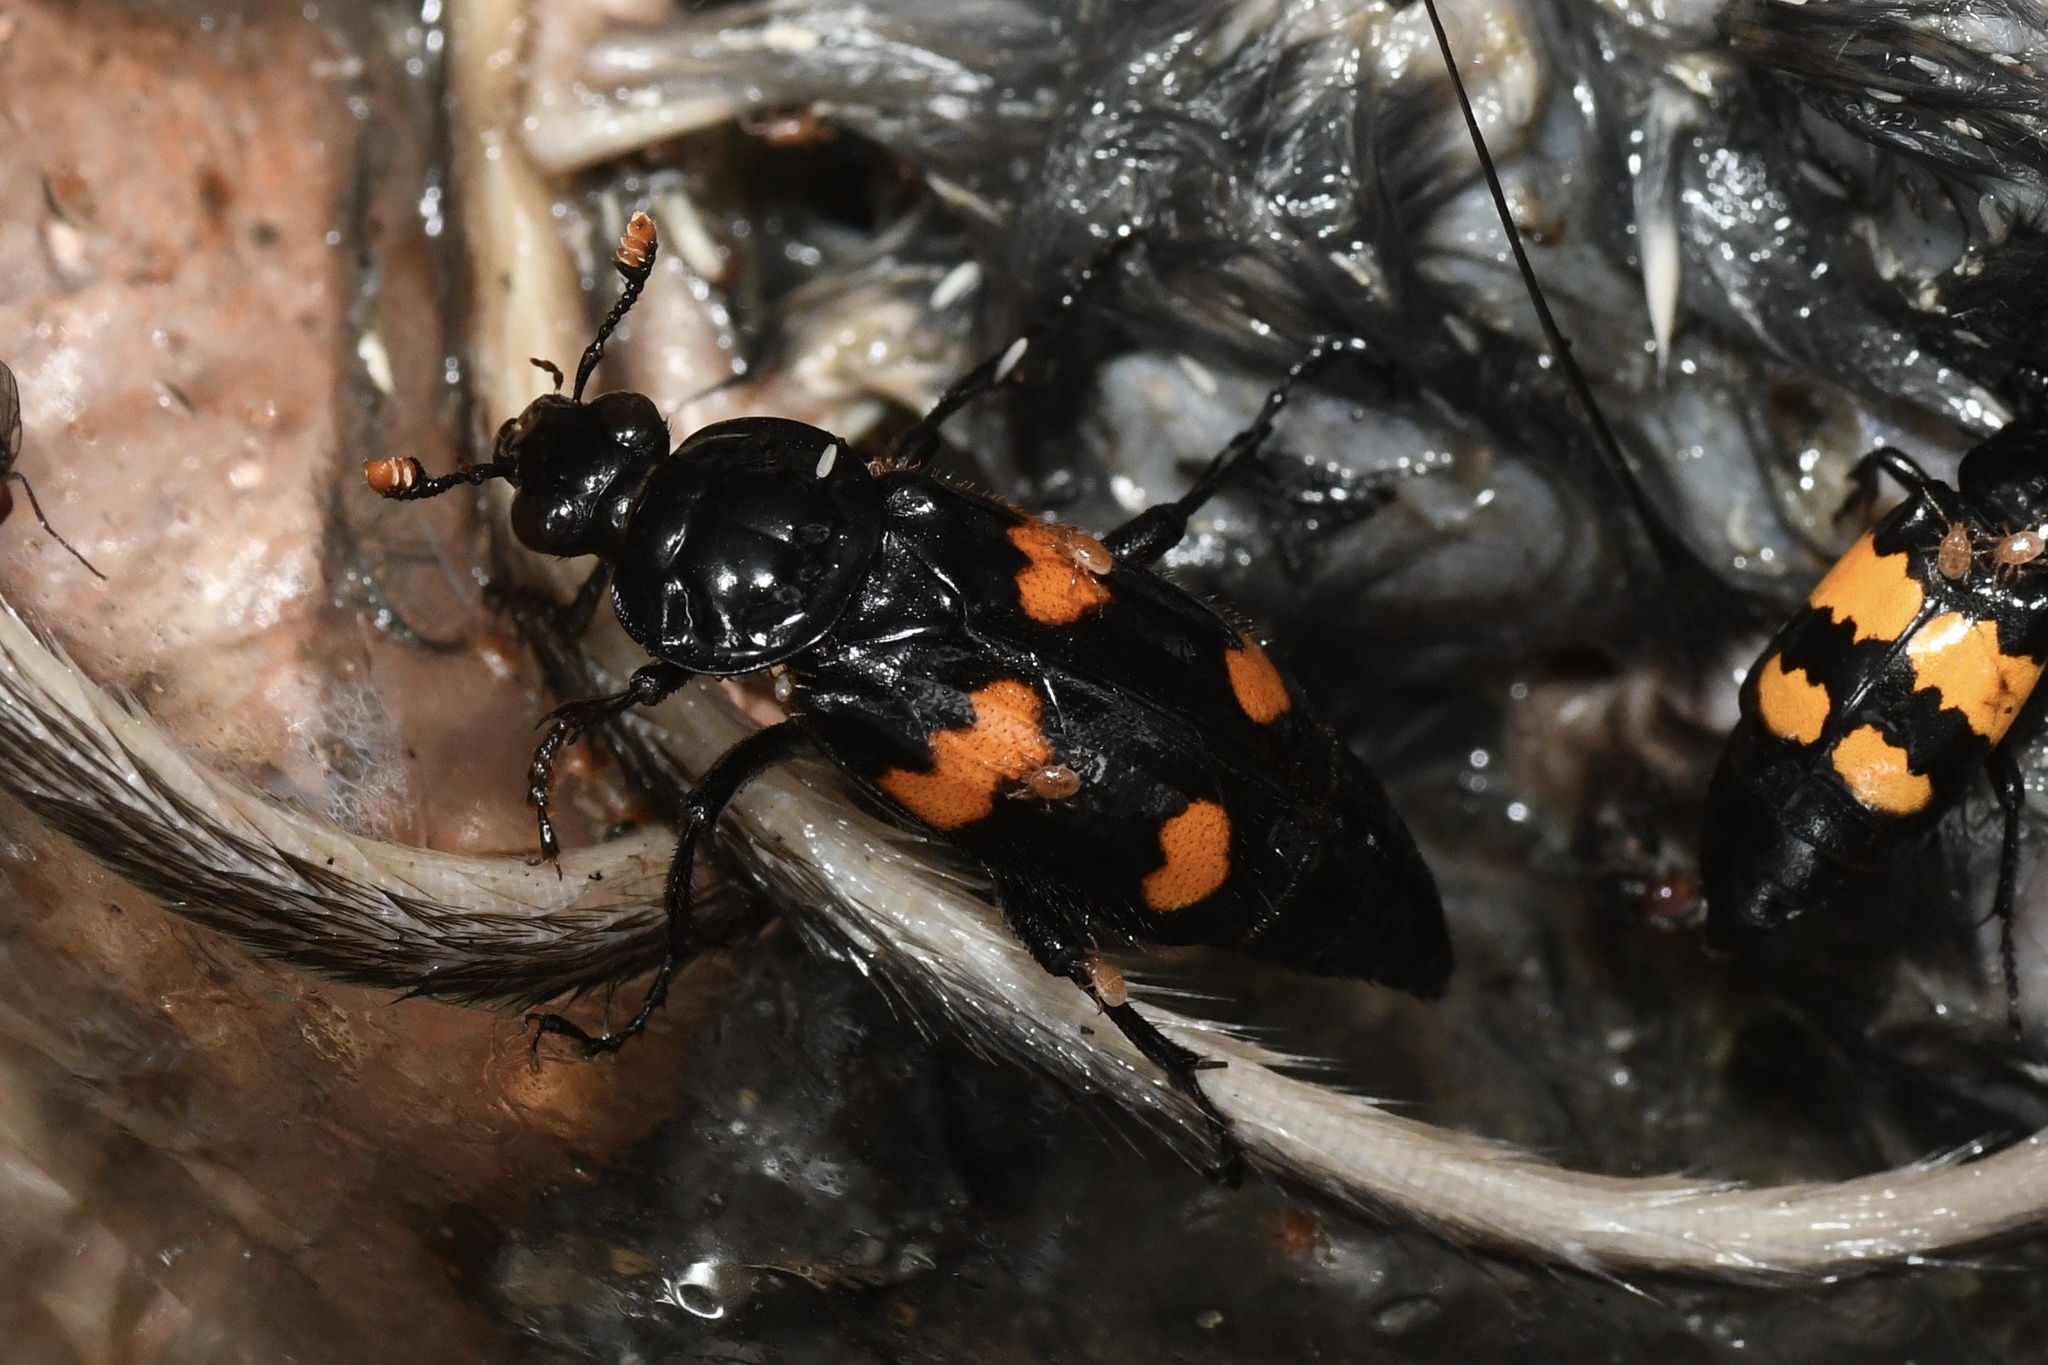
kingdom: Animalia
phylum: Arthropoda
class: Insecta
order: Coleoptera
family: Staphylinidae
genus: Nicrophorus
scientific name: Nicrophorus orbicollis
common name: Roundneck sexton beetle
